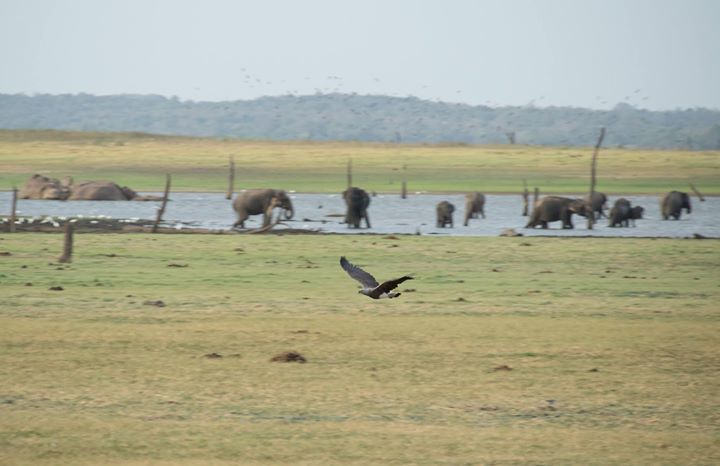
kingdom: Animalia
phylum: Chordata
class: Aves
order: Accipitriformes
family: Accipitridae
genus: Icthyophaga
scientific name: Icthyophaga ichthyaetus
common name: Grey-headed fish eagle
